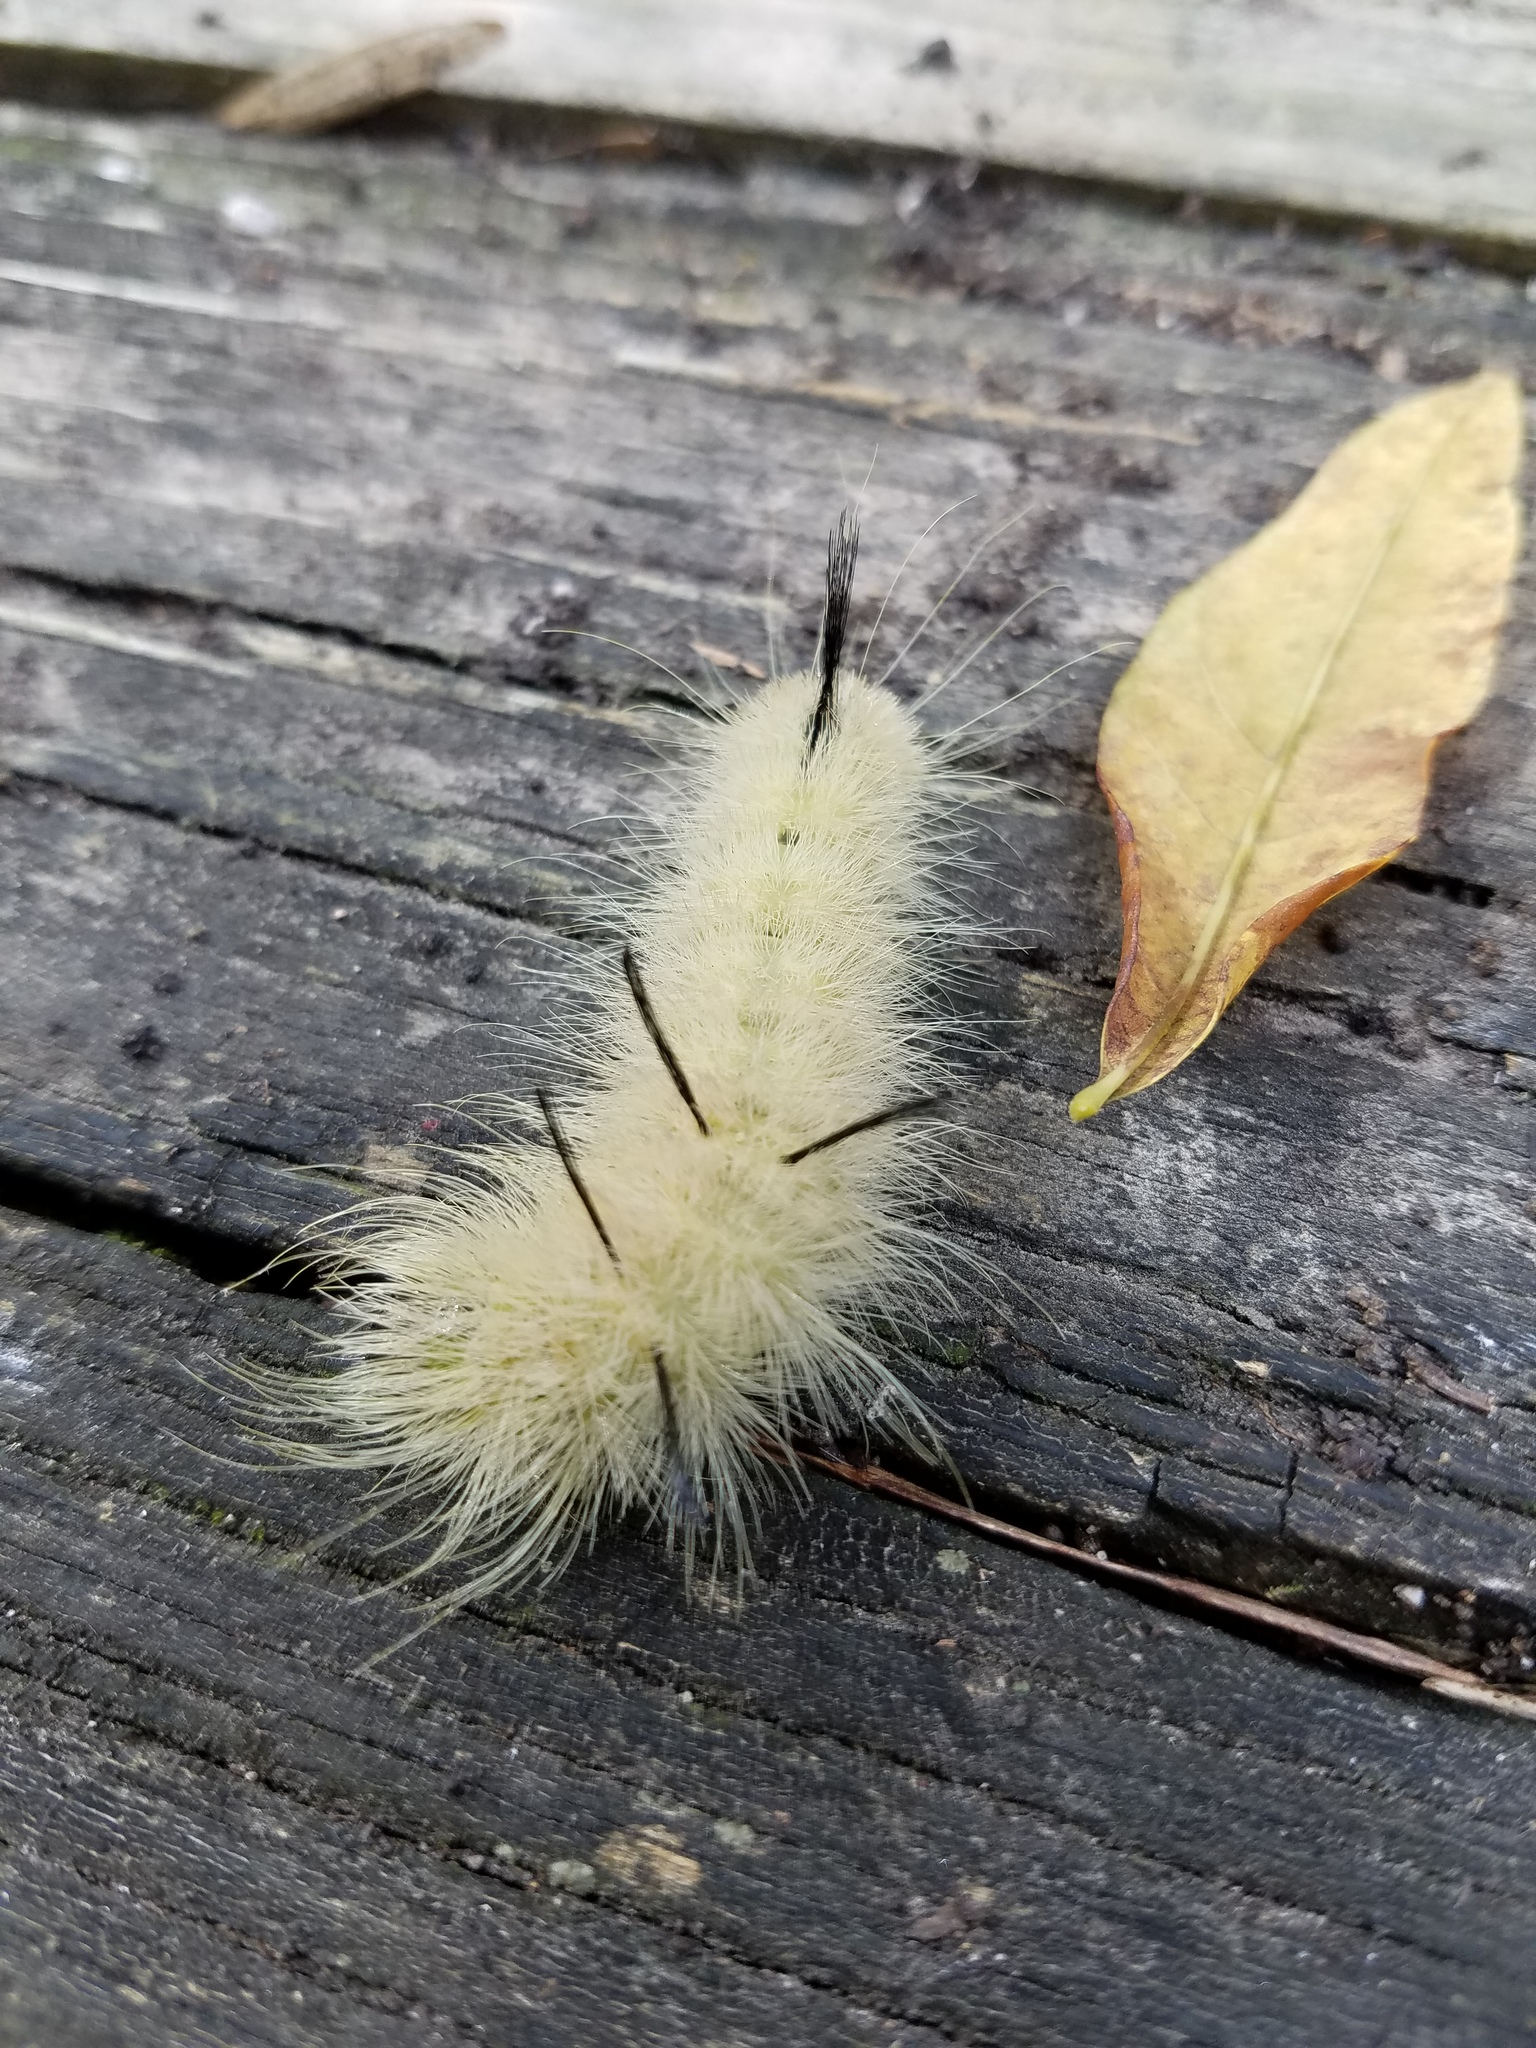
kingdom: Animalia
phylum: Arthropoda
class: Insecta
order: Lepidoptera
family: Noctuidae
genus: Acronicta
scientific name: Acronicta americana
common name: American dagger
